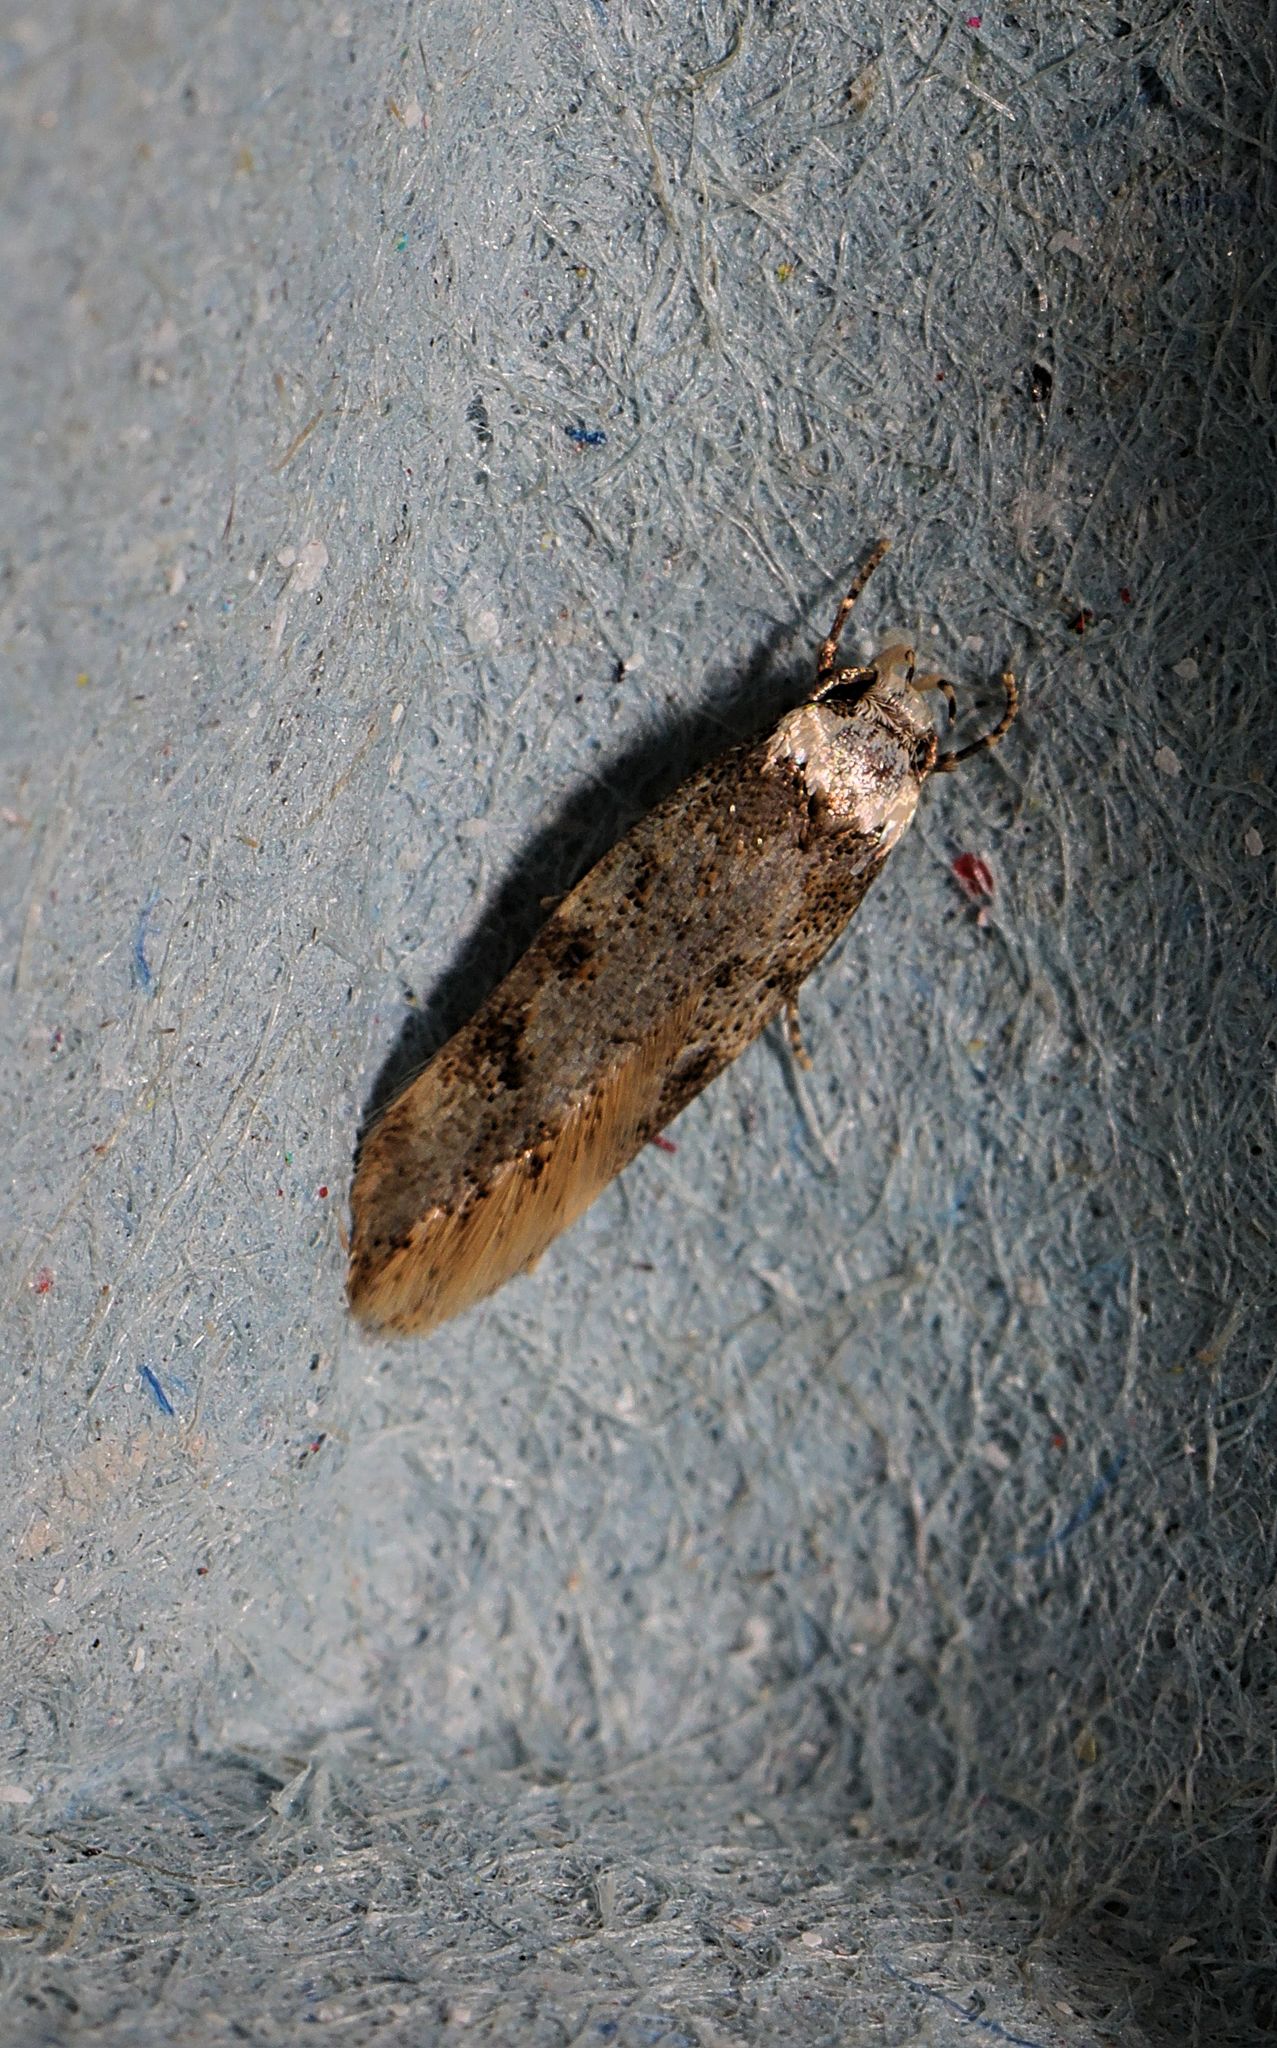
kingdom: Animalia
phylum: Arthropoda
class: Insecta
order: Lepidoptera
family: Oecophoridae
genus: Endrosis
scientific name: Endrosis sarcitrella
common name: White-shouldered house moth
